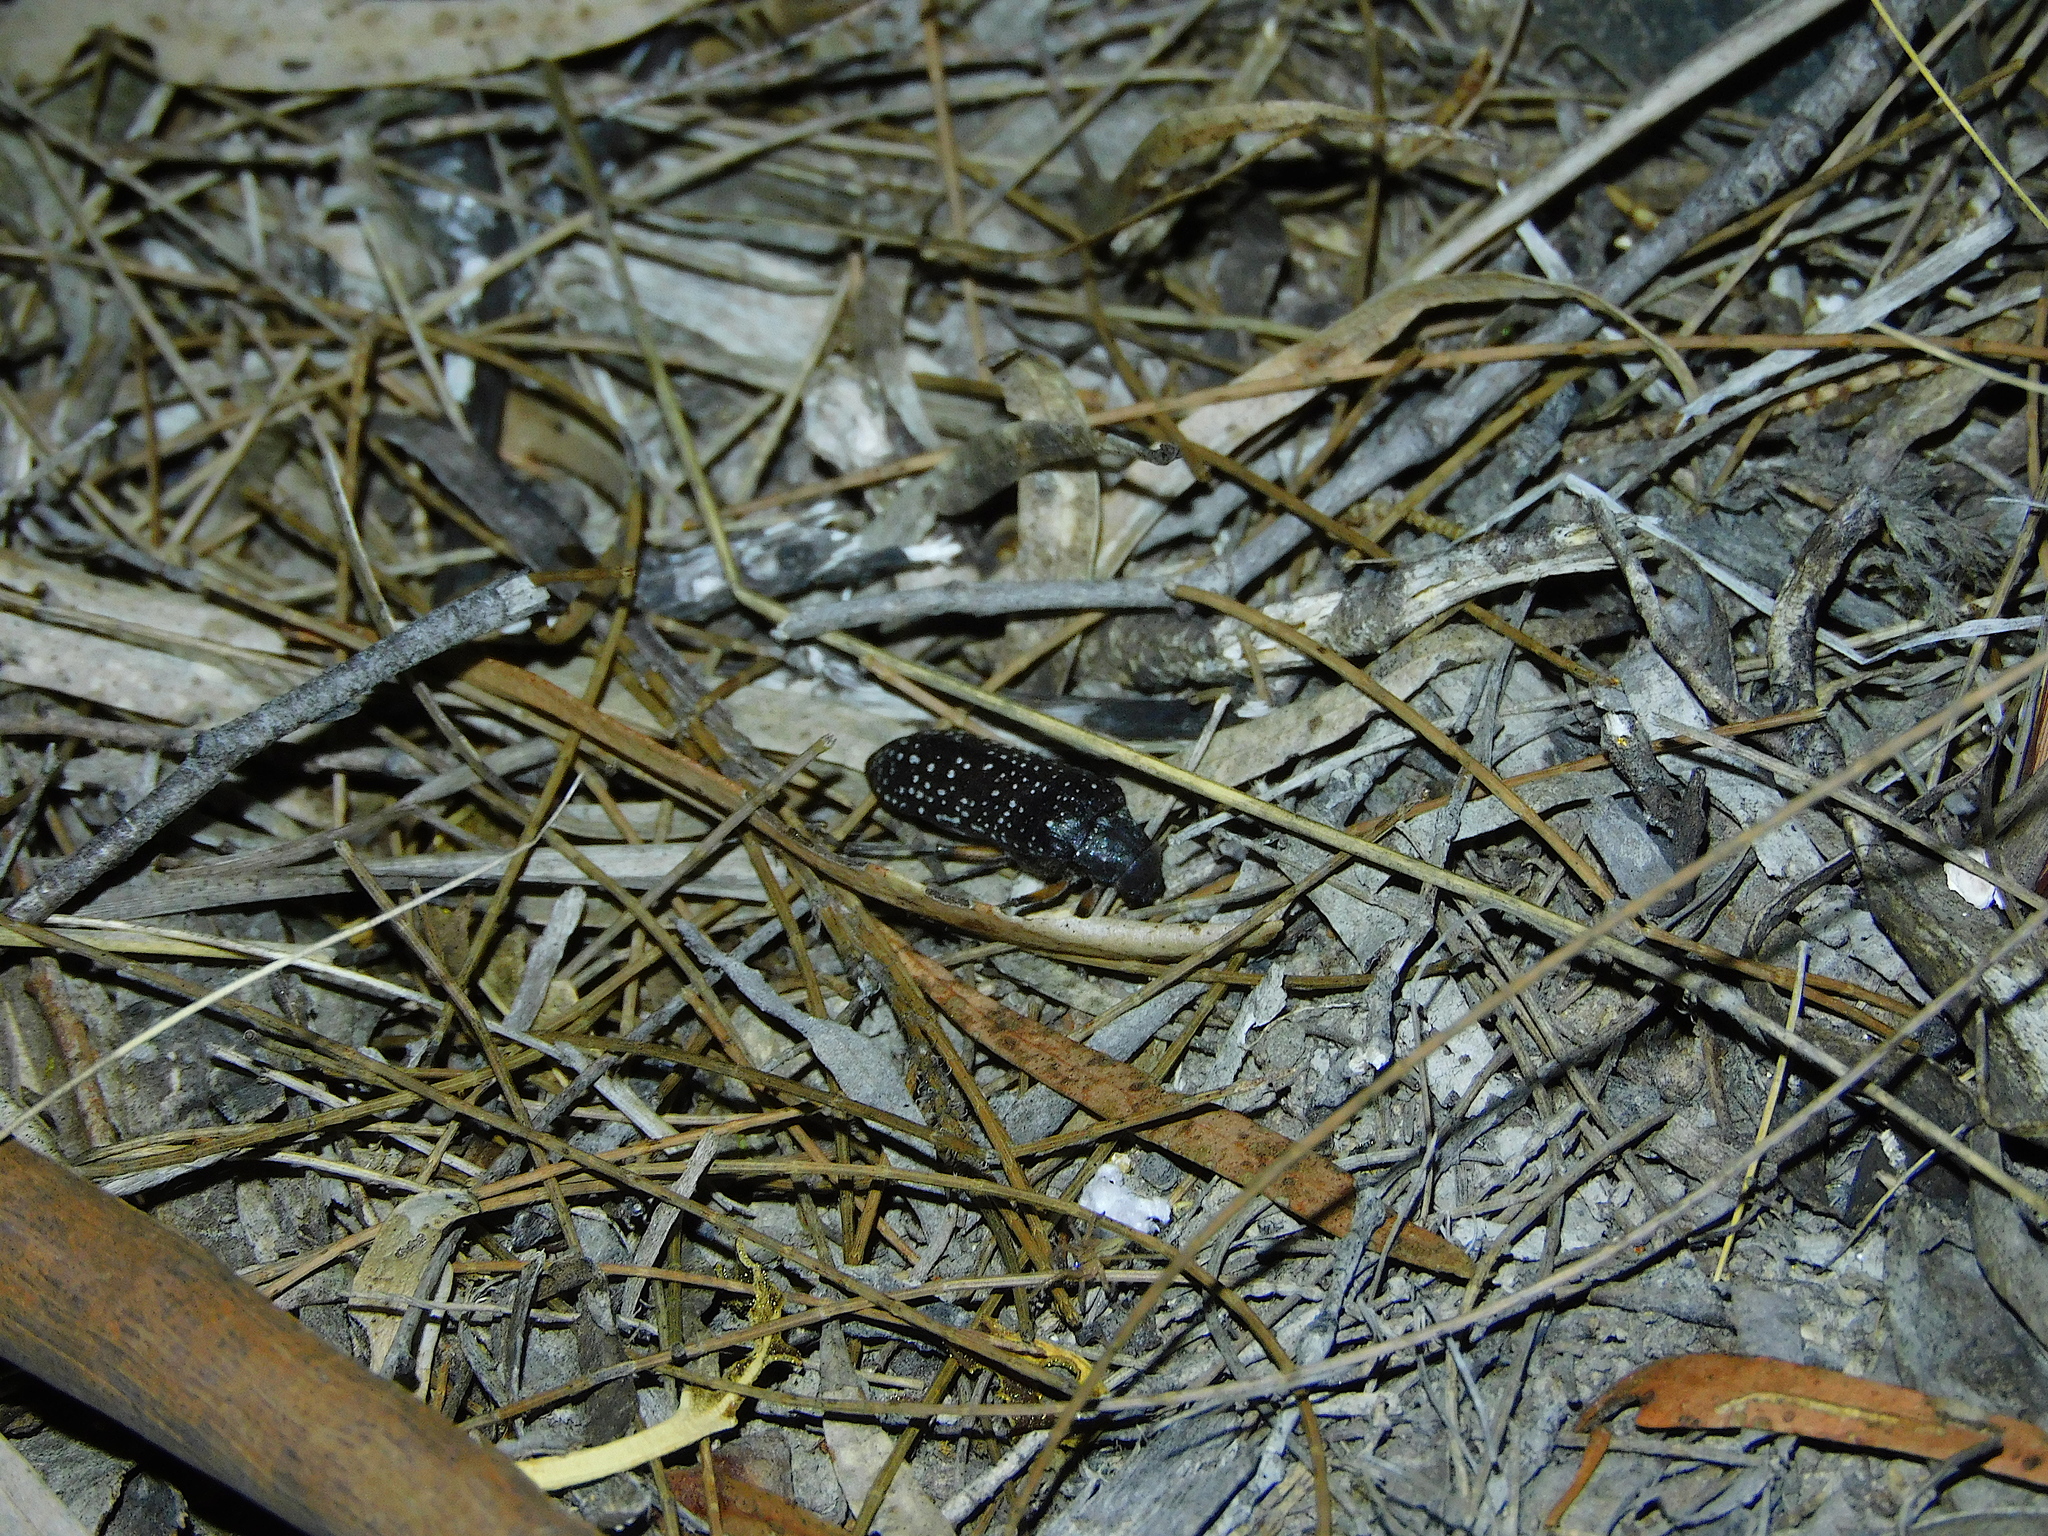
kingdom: Animalia
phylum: Arthropoda
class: Insecta
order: Coleoptera
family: Rhipiceridae
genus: Rhipicera
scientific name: Rhipicera femorata
